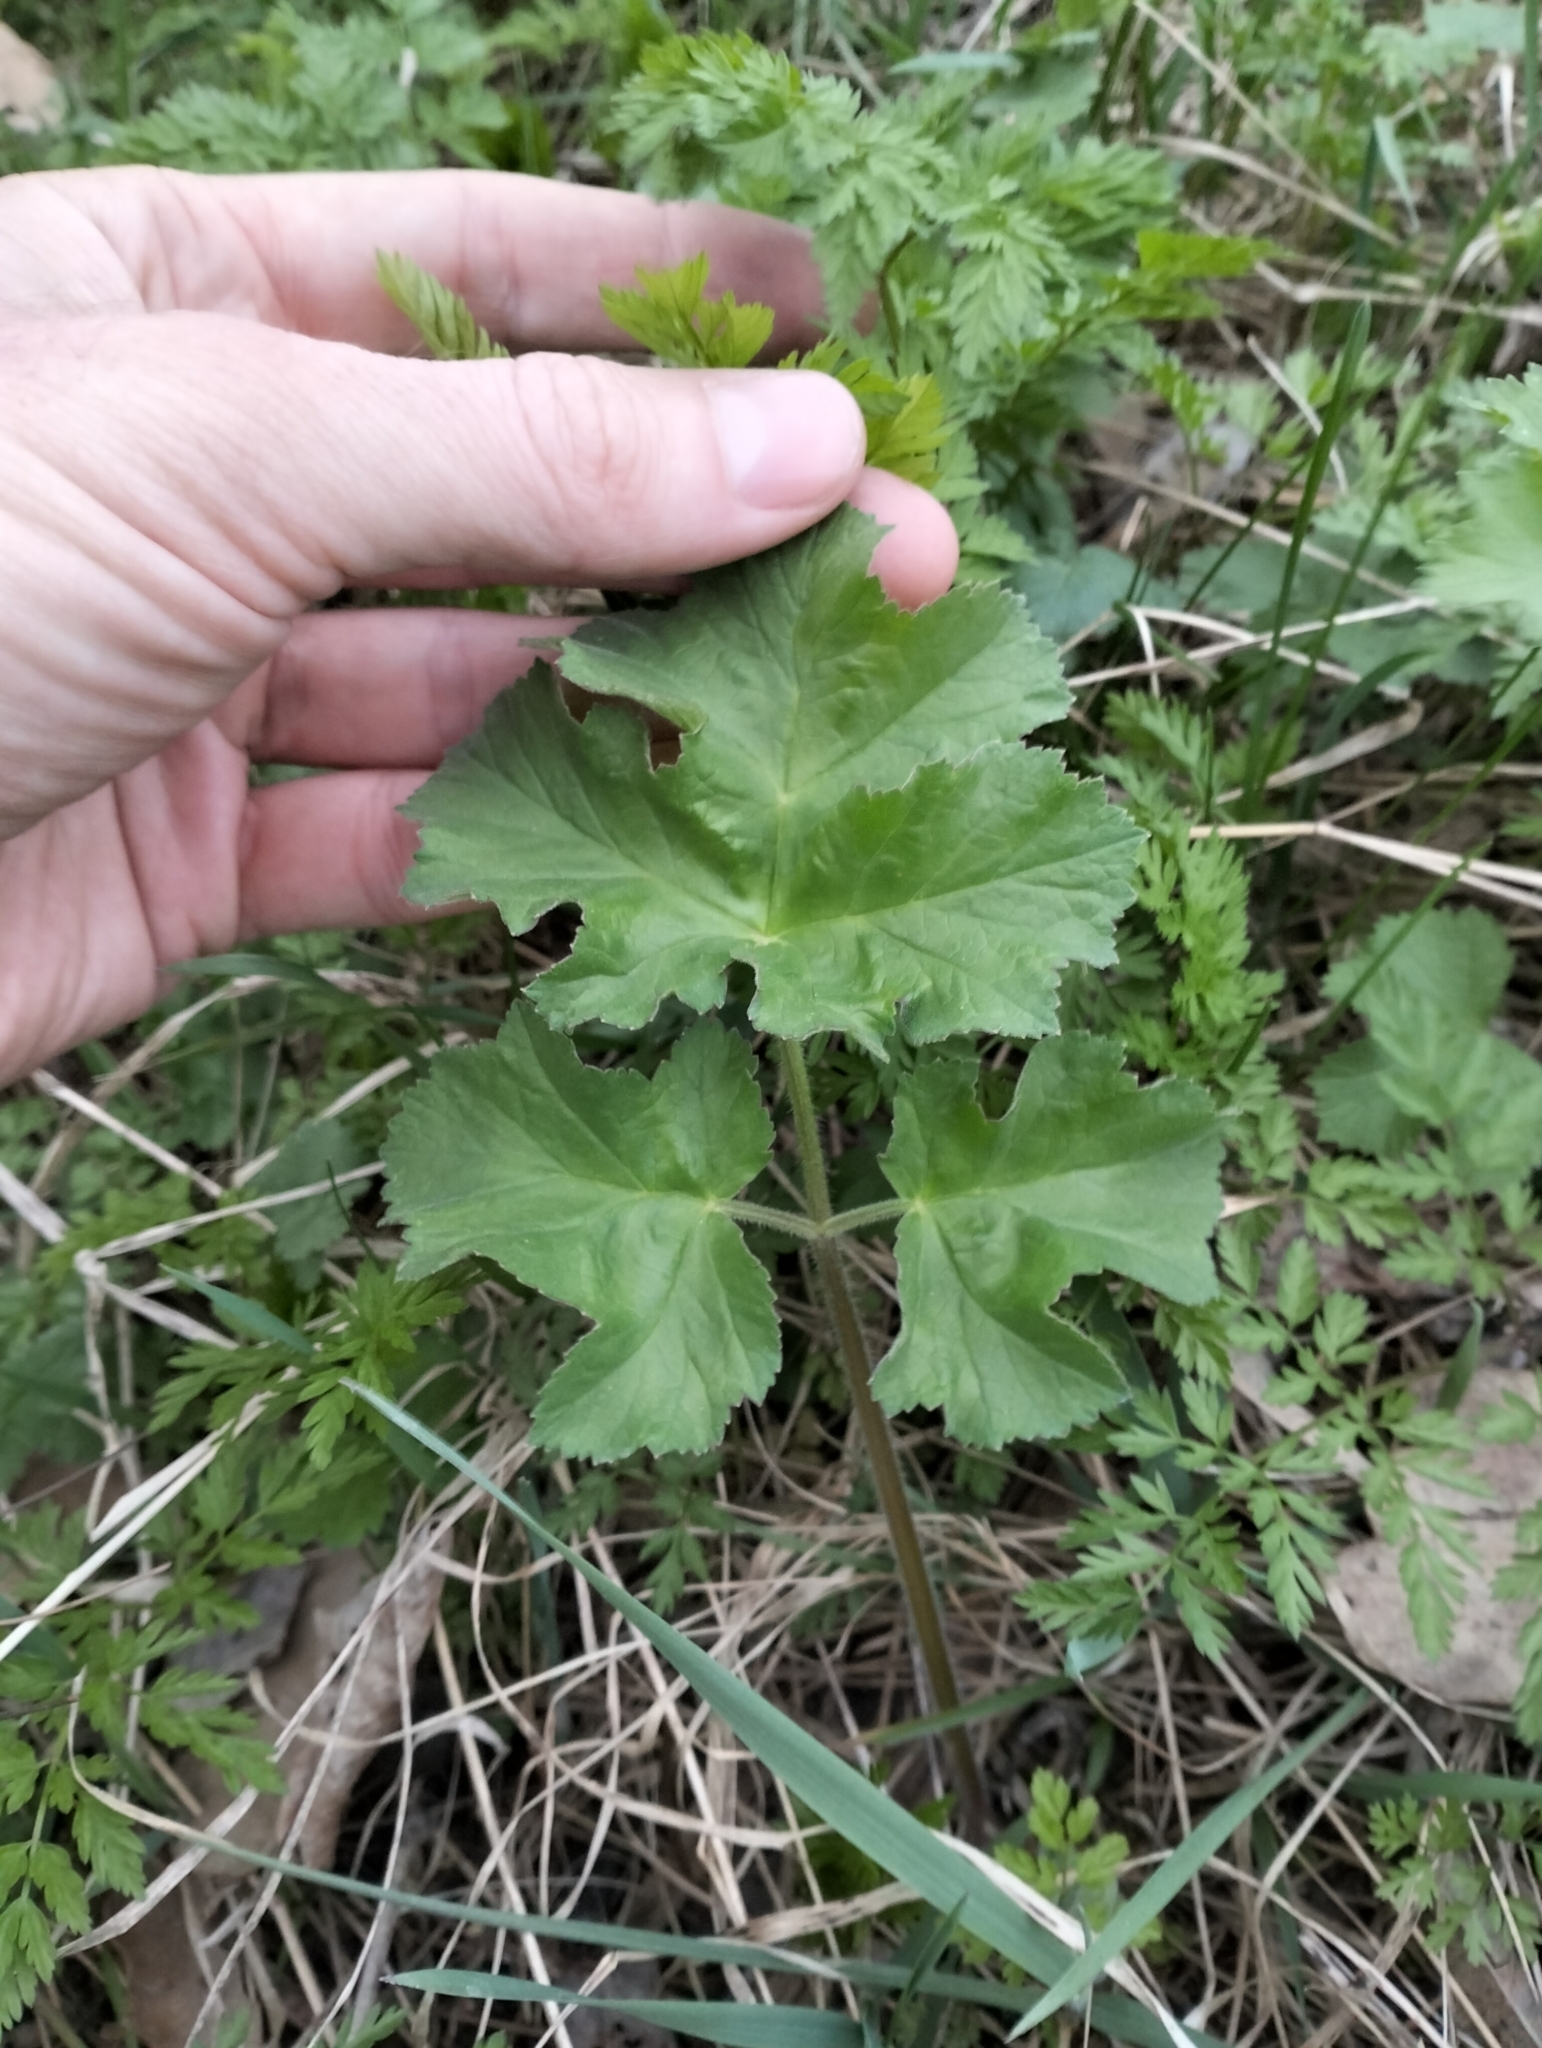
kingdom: Plantae
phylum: Tracheophyta
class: Magnoliopsida
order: Apiales
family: Apiaceae
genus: Heracleum
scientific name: Heracleum sphondylium
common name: Hogweed
